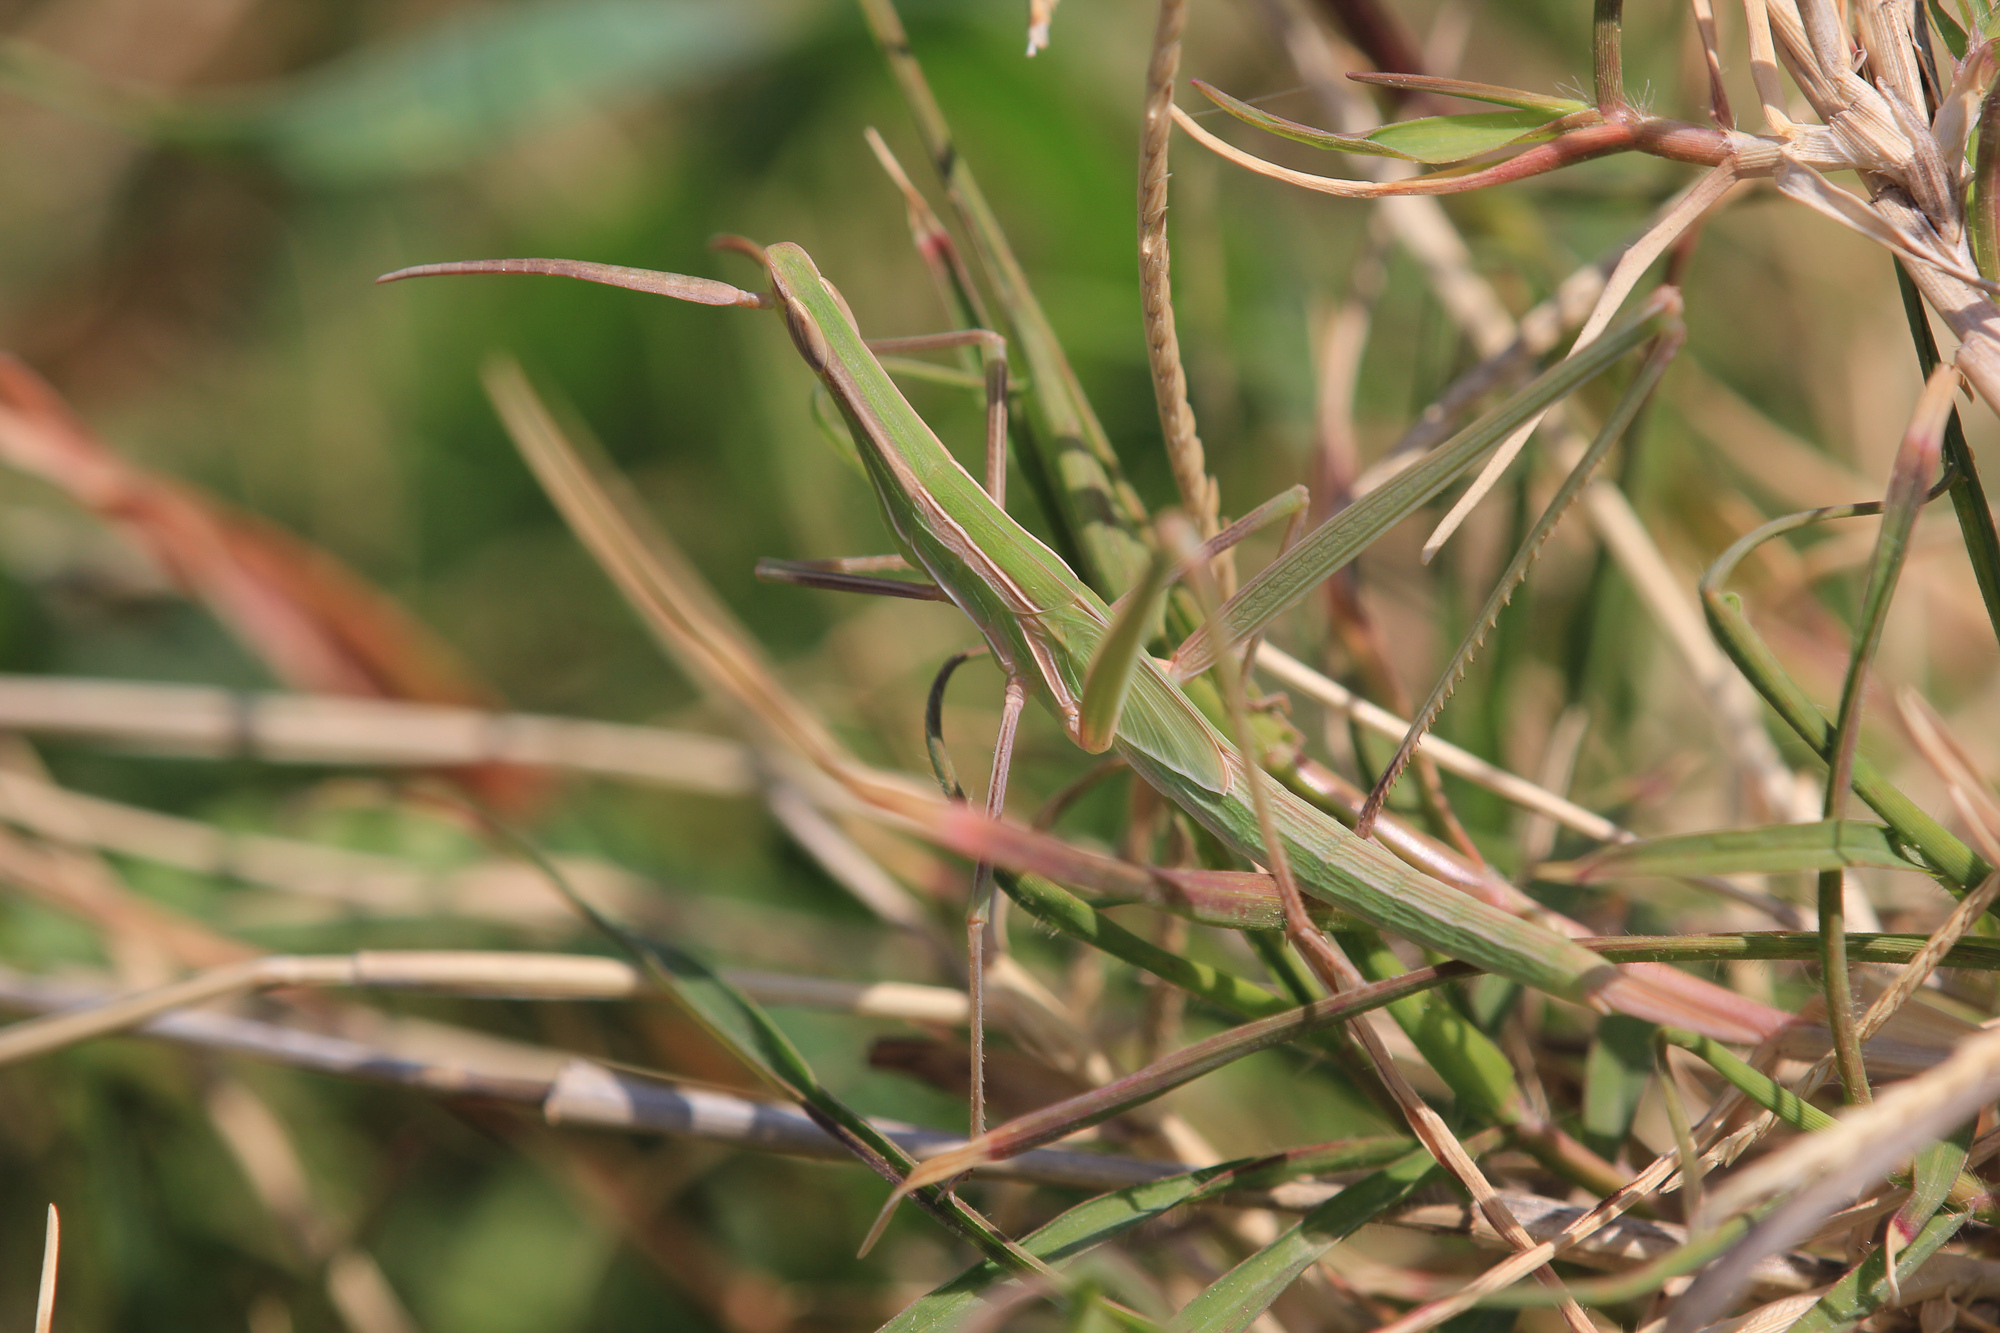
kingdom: Animalia
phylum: Arthropoda
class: Insecta
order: Orthoptera
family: Acrididae
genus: Truxalis
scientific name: Truxalis nasuta
